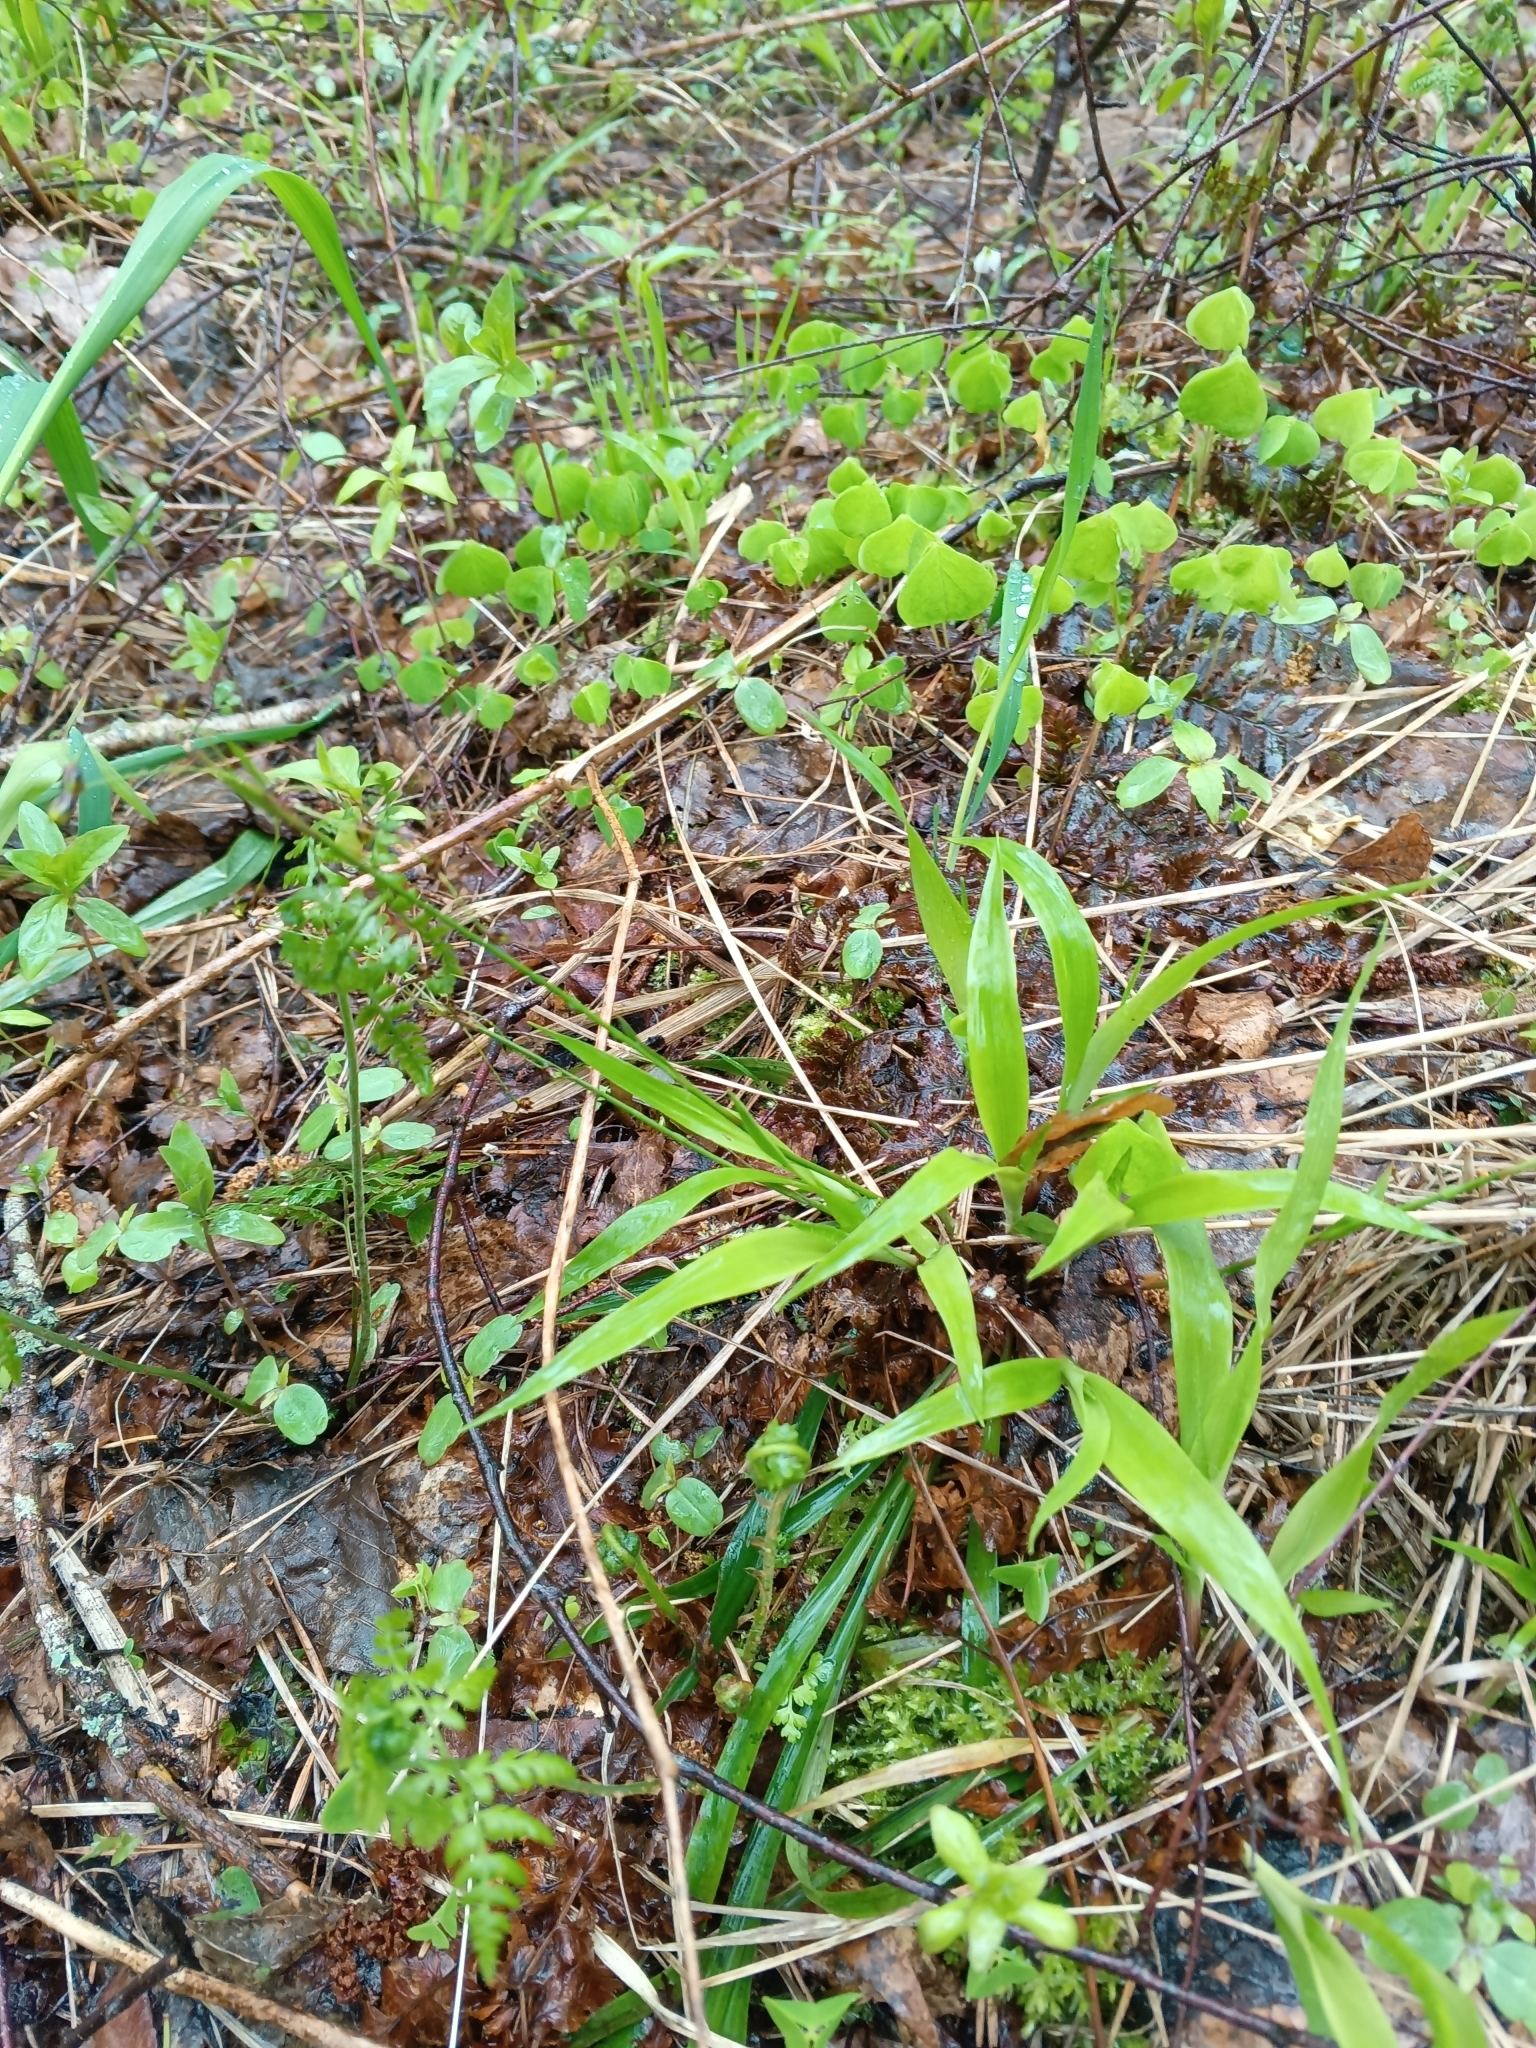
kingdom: Plantae
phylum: Tracheophyta
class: Liliopsida
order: Poales
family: Juncaceae
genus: Luzula
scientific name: Luzula pilosa
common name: Hairy wood-rush
